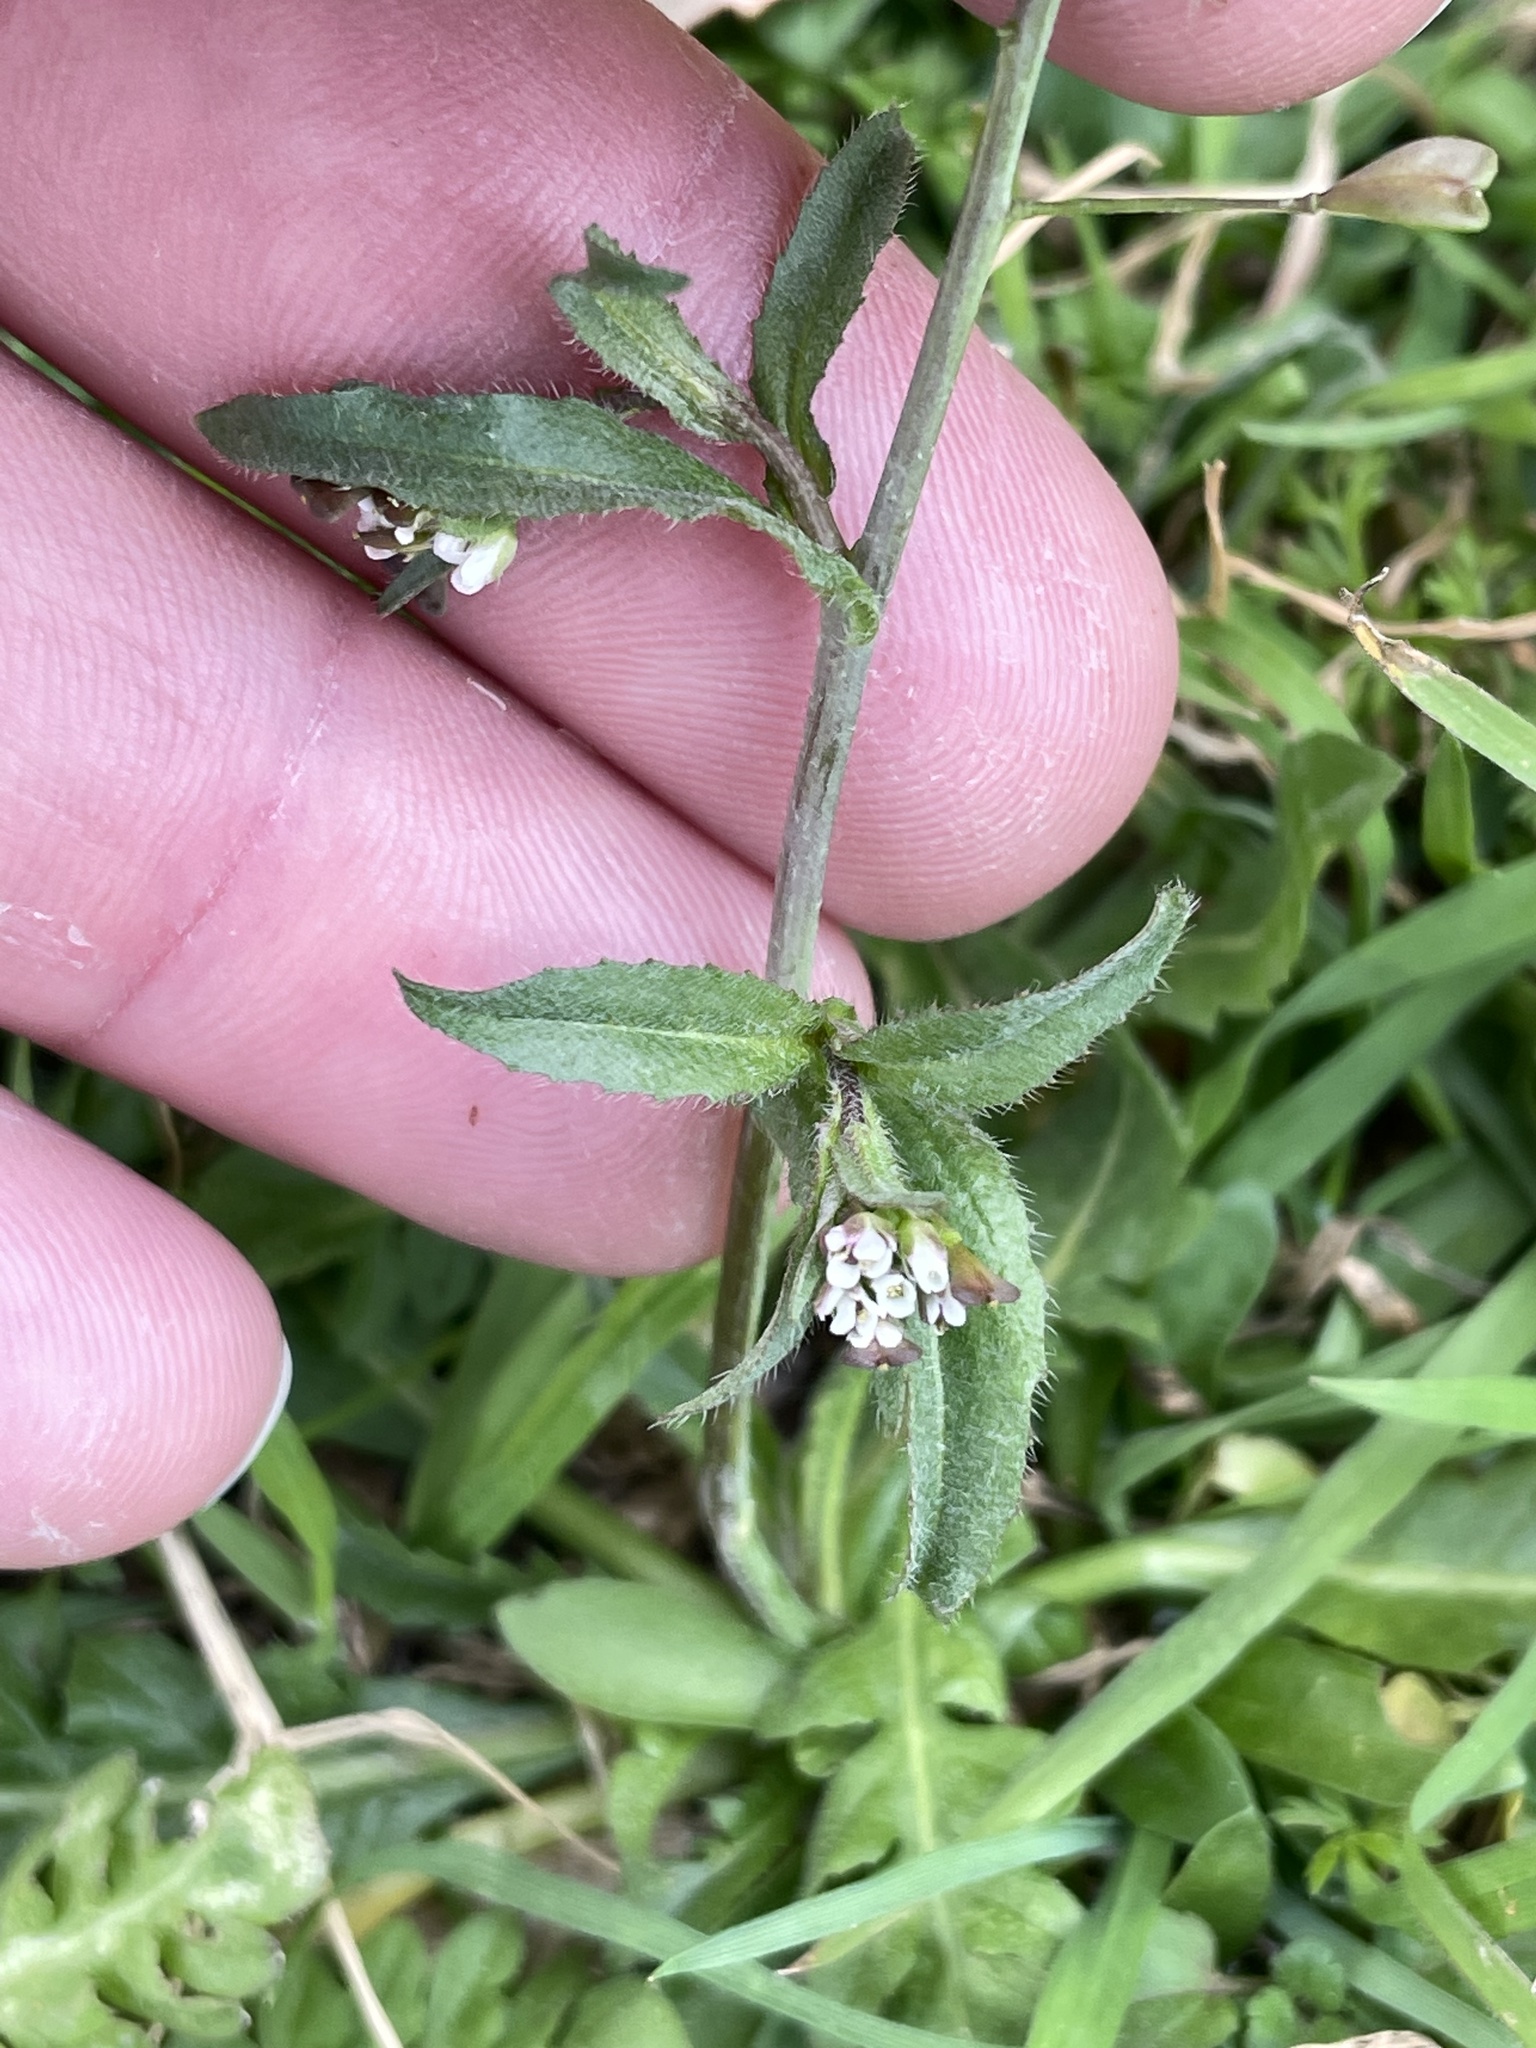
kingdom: Plantae
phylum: Tracheophyta
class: Magnoliopsida
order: Brassicales
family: Brassicaceae
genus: Capsella
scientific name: Capsella bursa-pastoris
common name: Shepherd's purse
